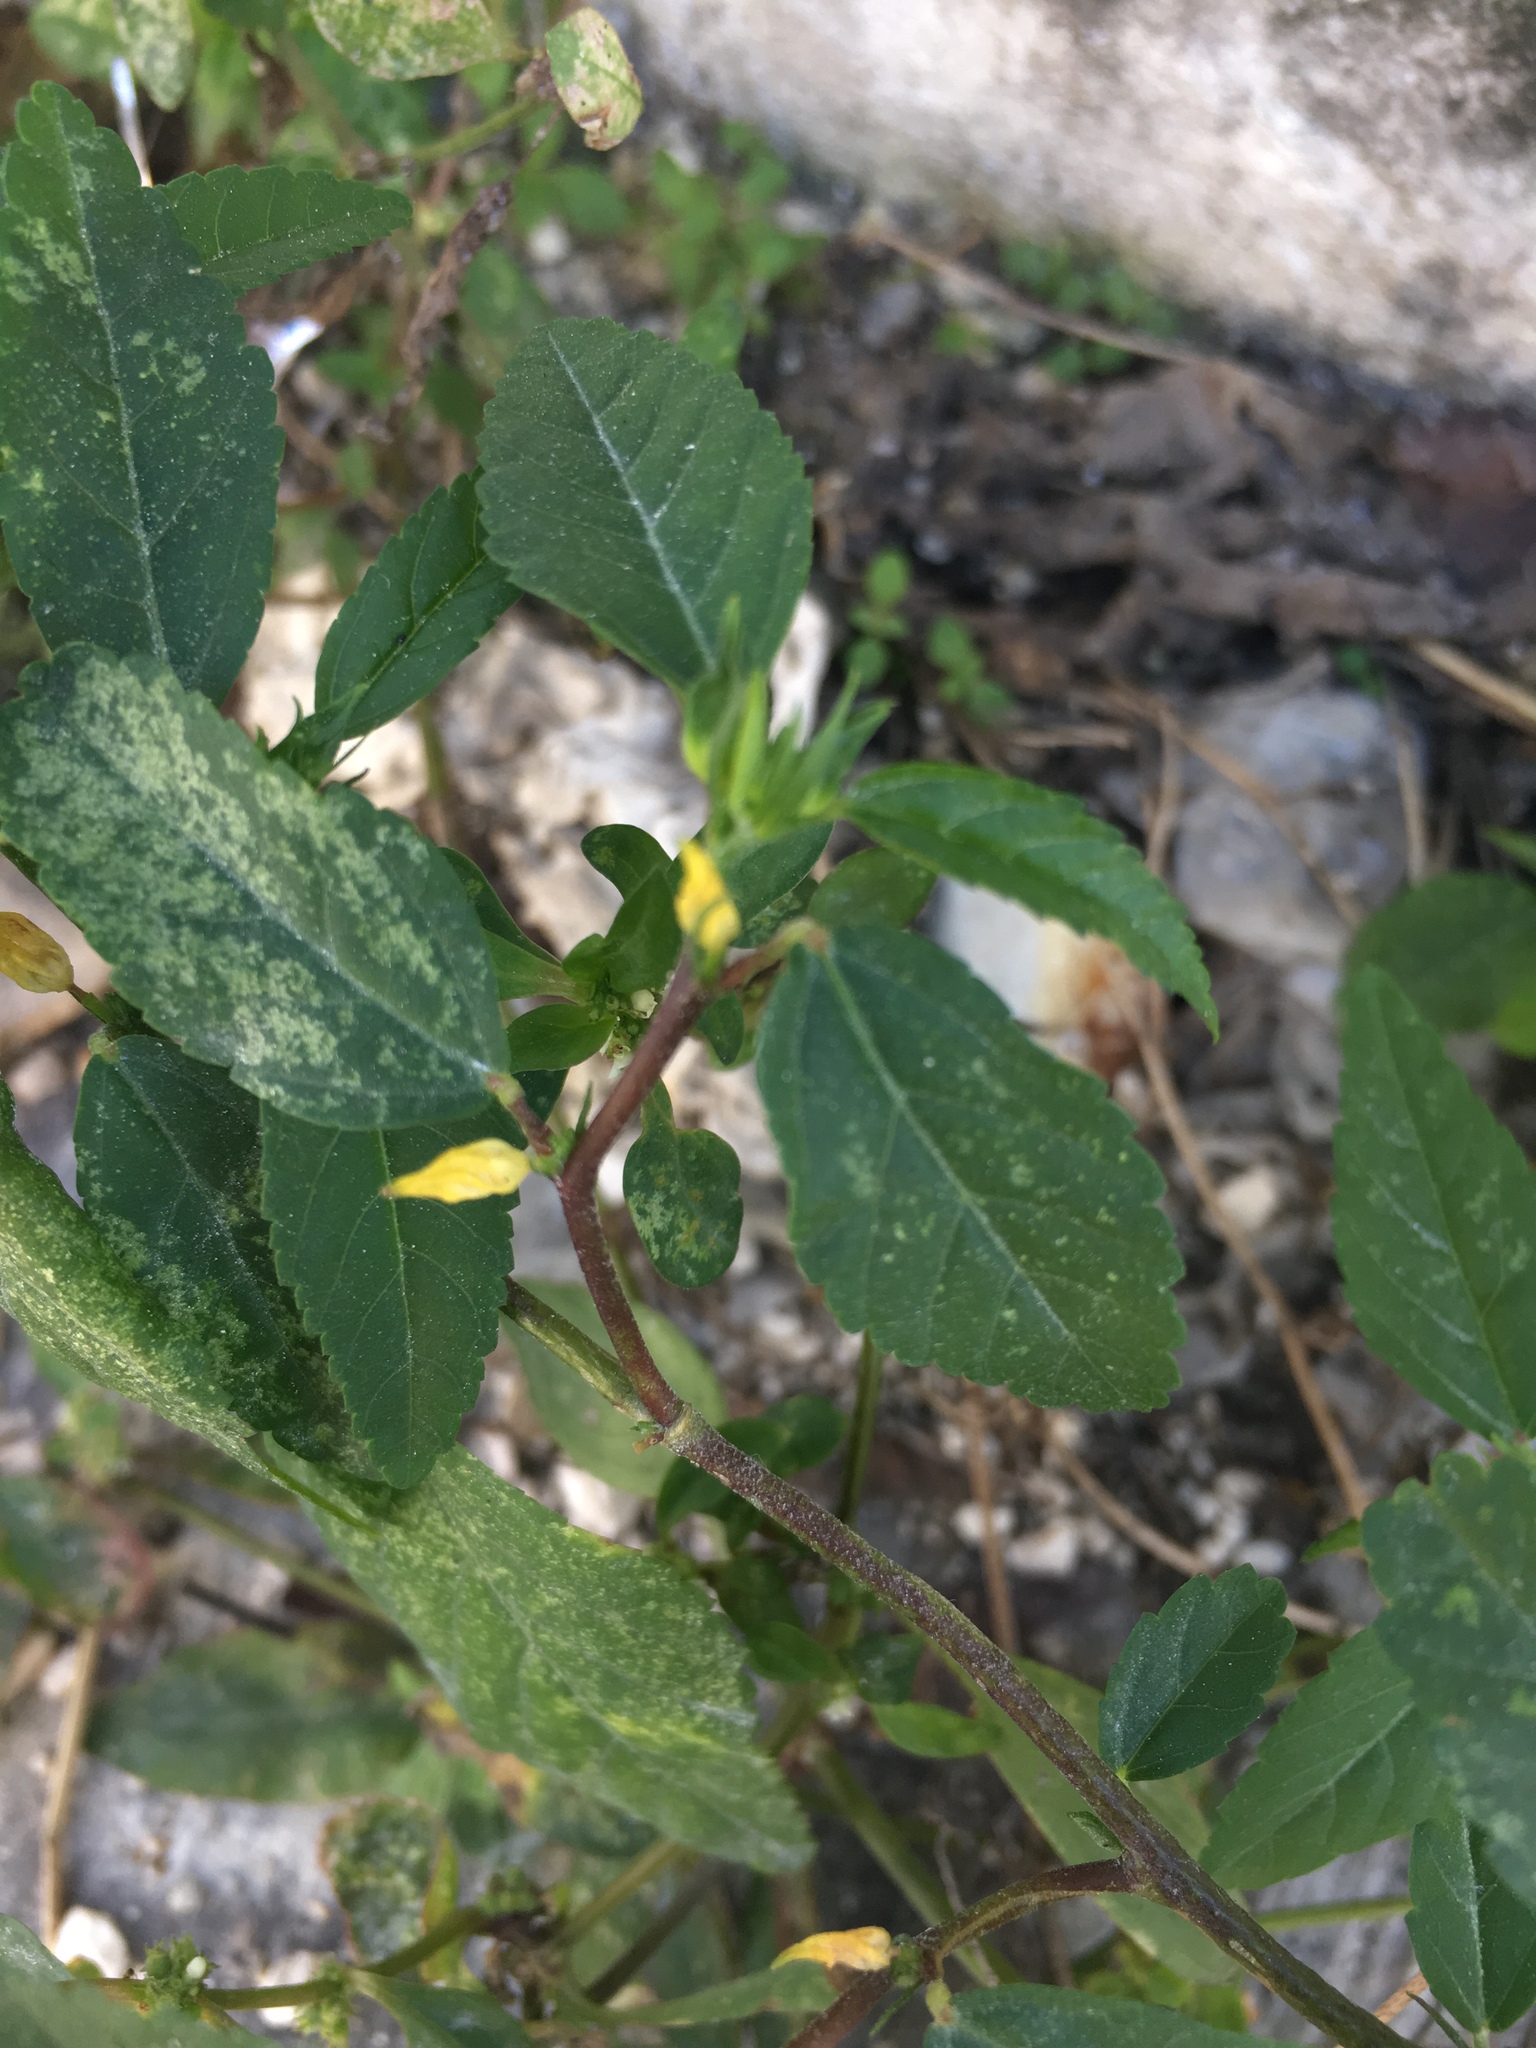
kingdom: Plantae
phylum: Tracheophyta
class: Magnoliopsida
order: Malvales
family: Malvaceae
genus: Sida
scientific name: Sida rhombifolia
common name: Queensland-hemp
